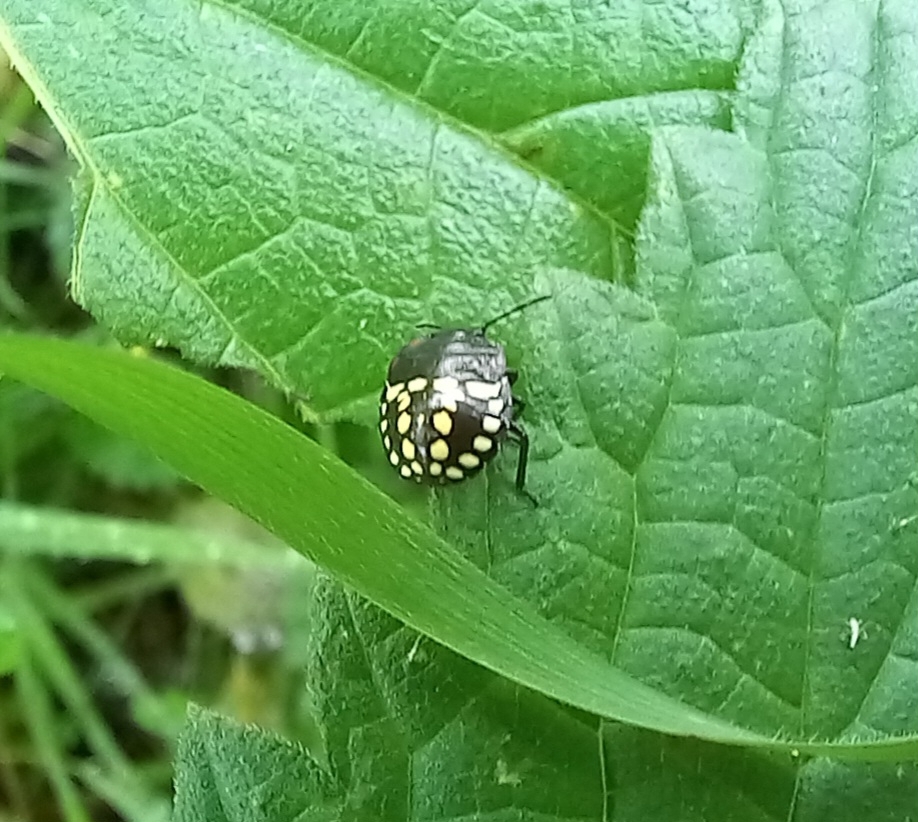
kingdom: Animalia
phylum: Arthropoda
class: Insecta
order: Hemiptera
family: Pentatomidae
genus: Nezara
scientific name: Nezara viridula
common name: Southern green stink bug
